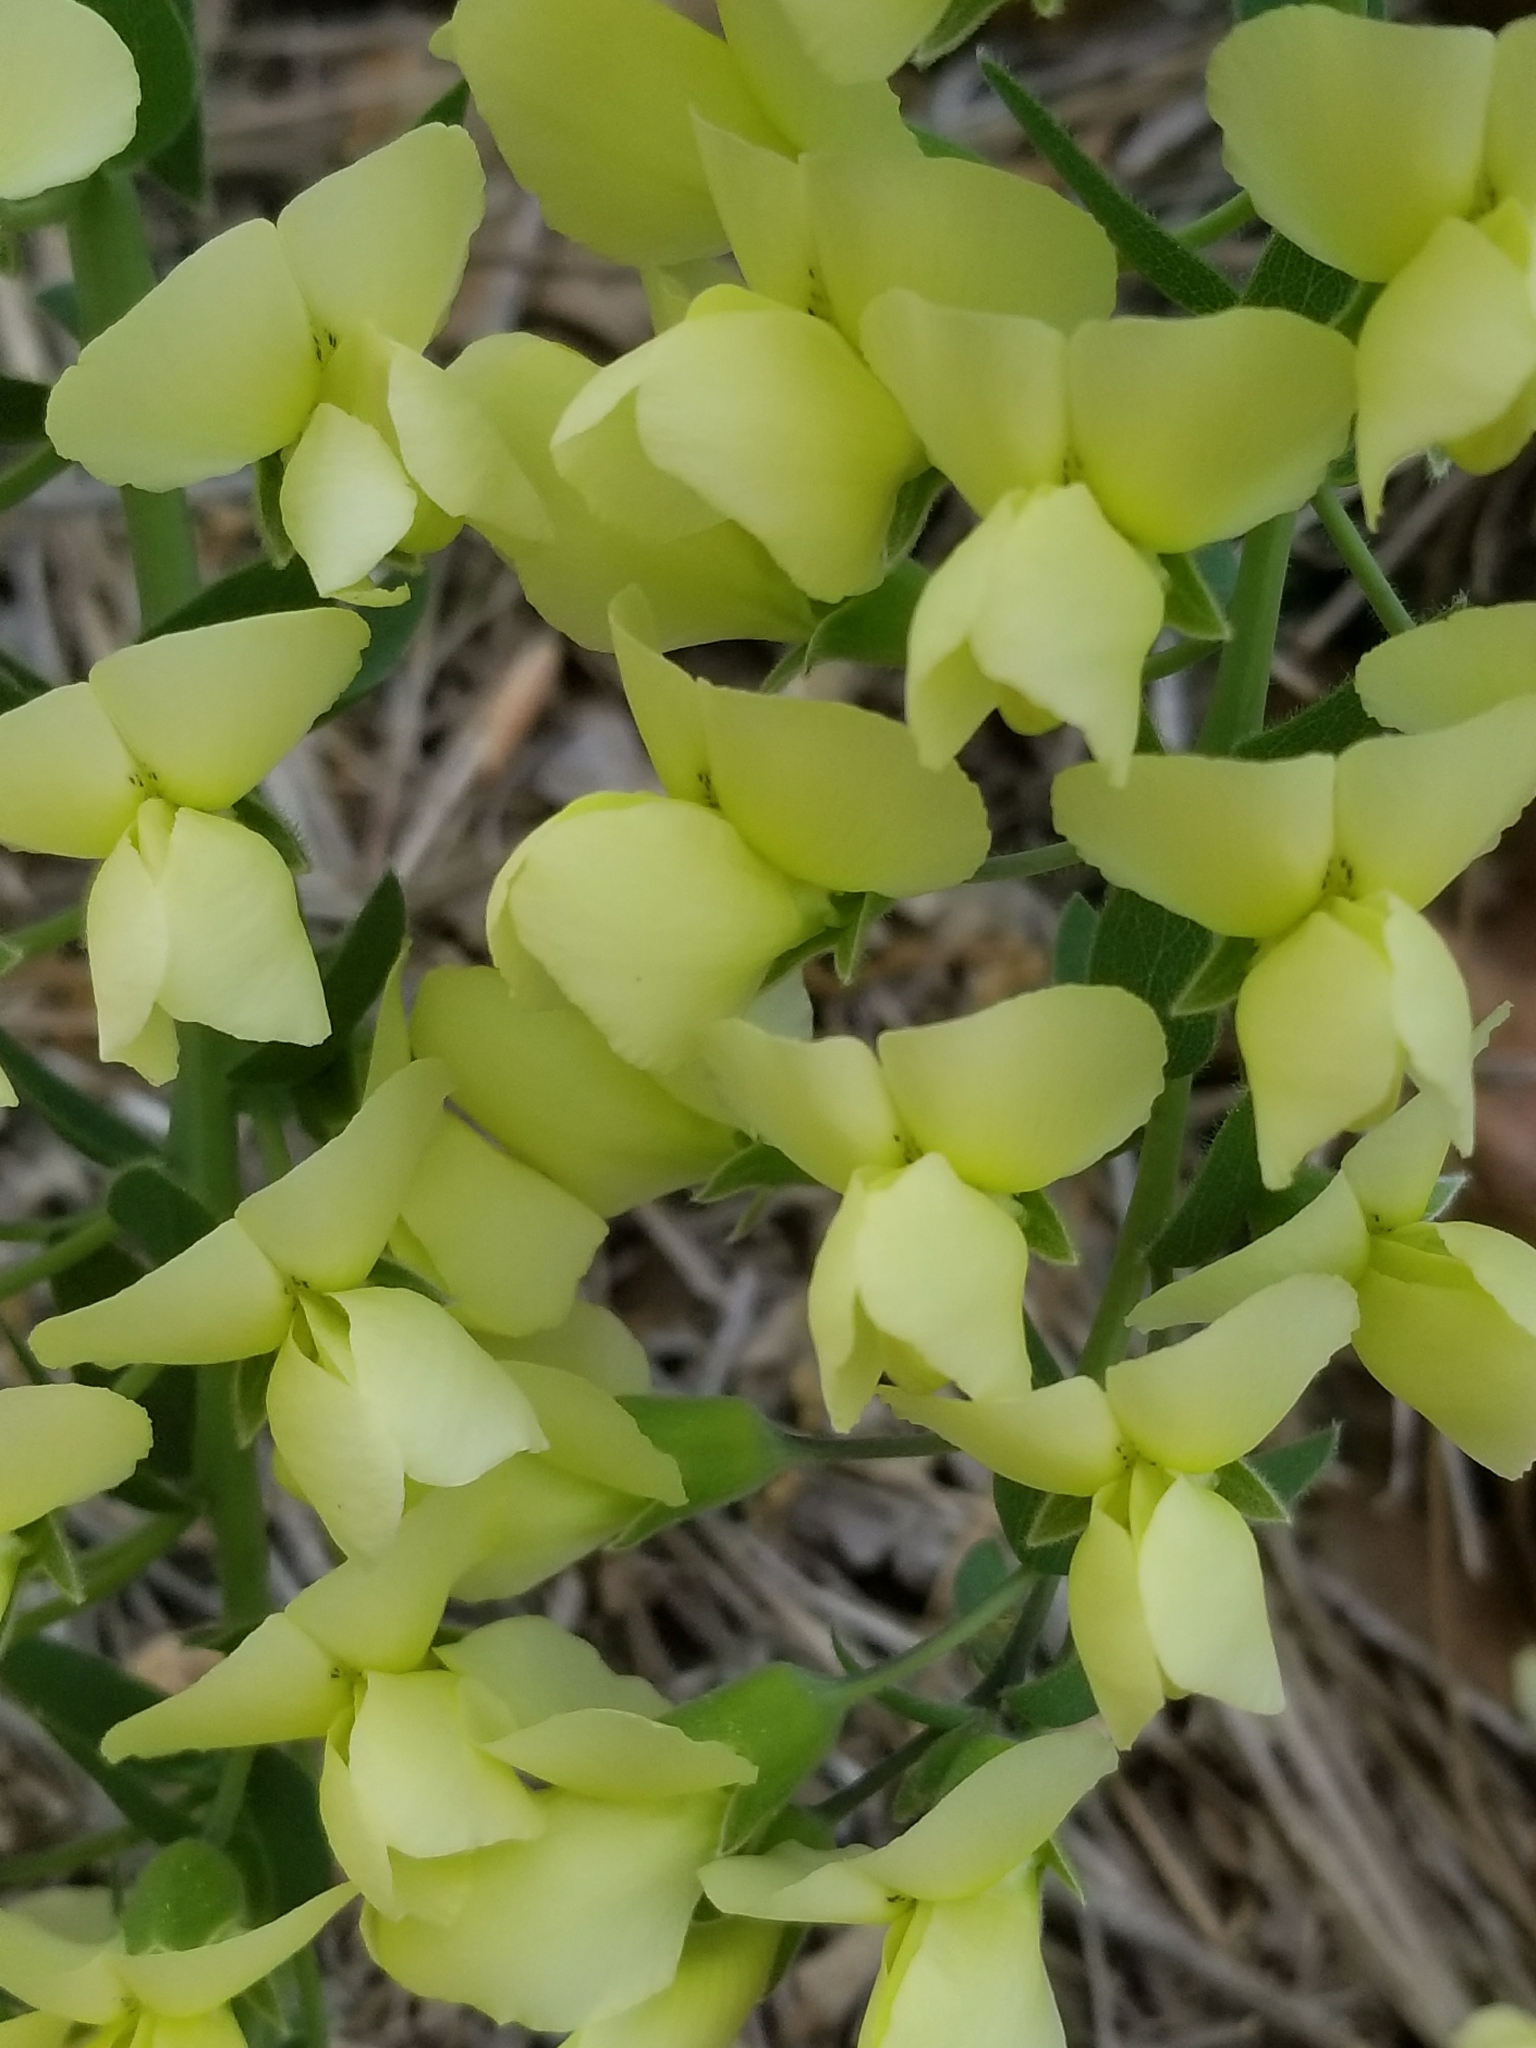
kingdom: Plantae
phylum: Tracheophyta
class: Magnoliopsida
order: Fabales
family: Fabaceae
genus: Baptisia
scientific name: Baptisia bracteata
